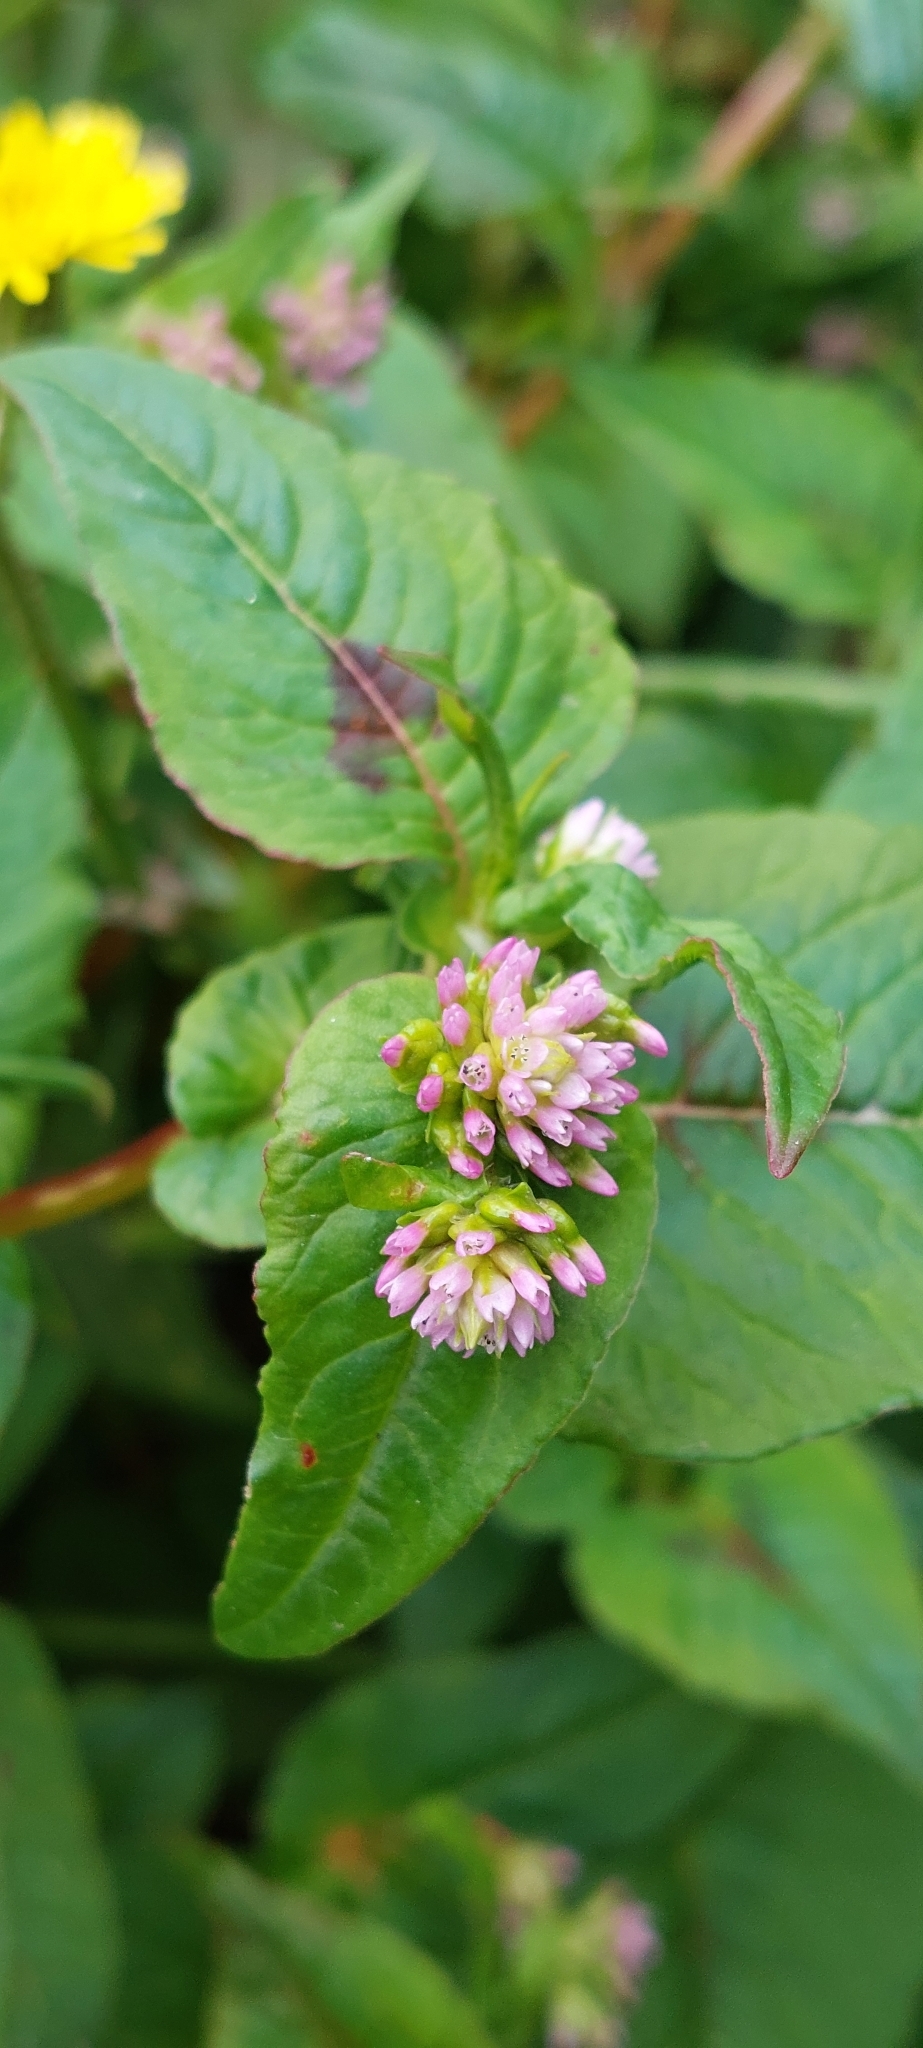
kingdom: Plantae
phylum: Tracheophyta
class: Magnoliopsida
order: Caryophyllales
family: Polygonaceae
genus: Persicaria
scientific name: Persicaria nepalensis
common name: Nepal persicaria
